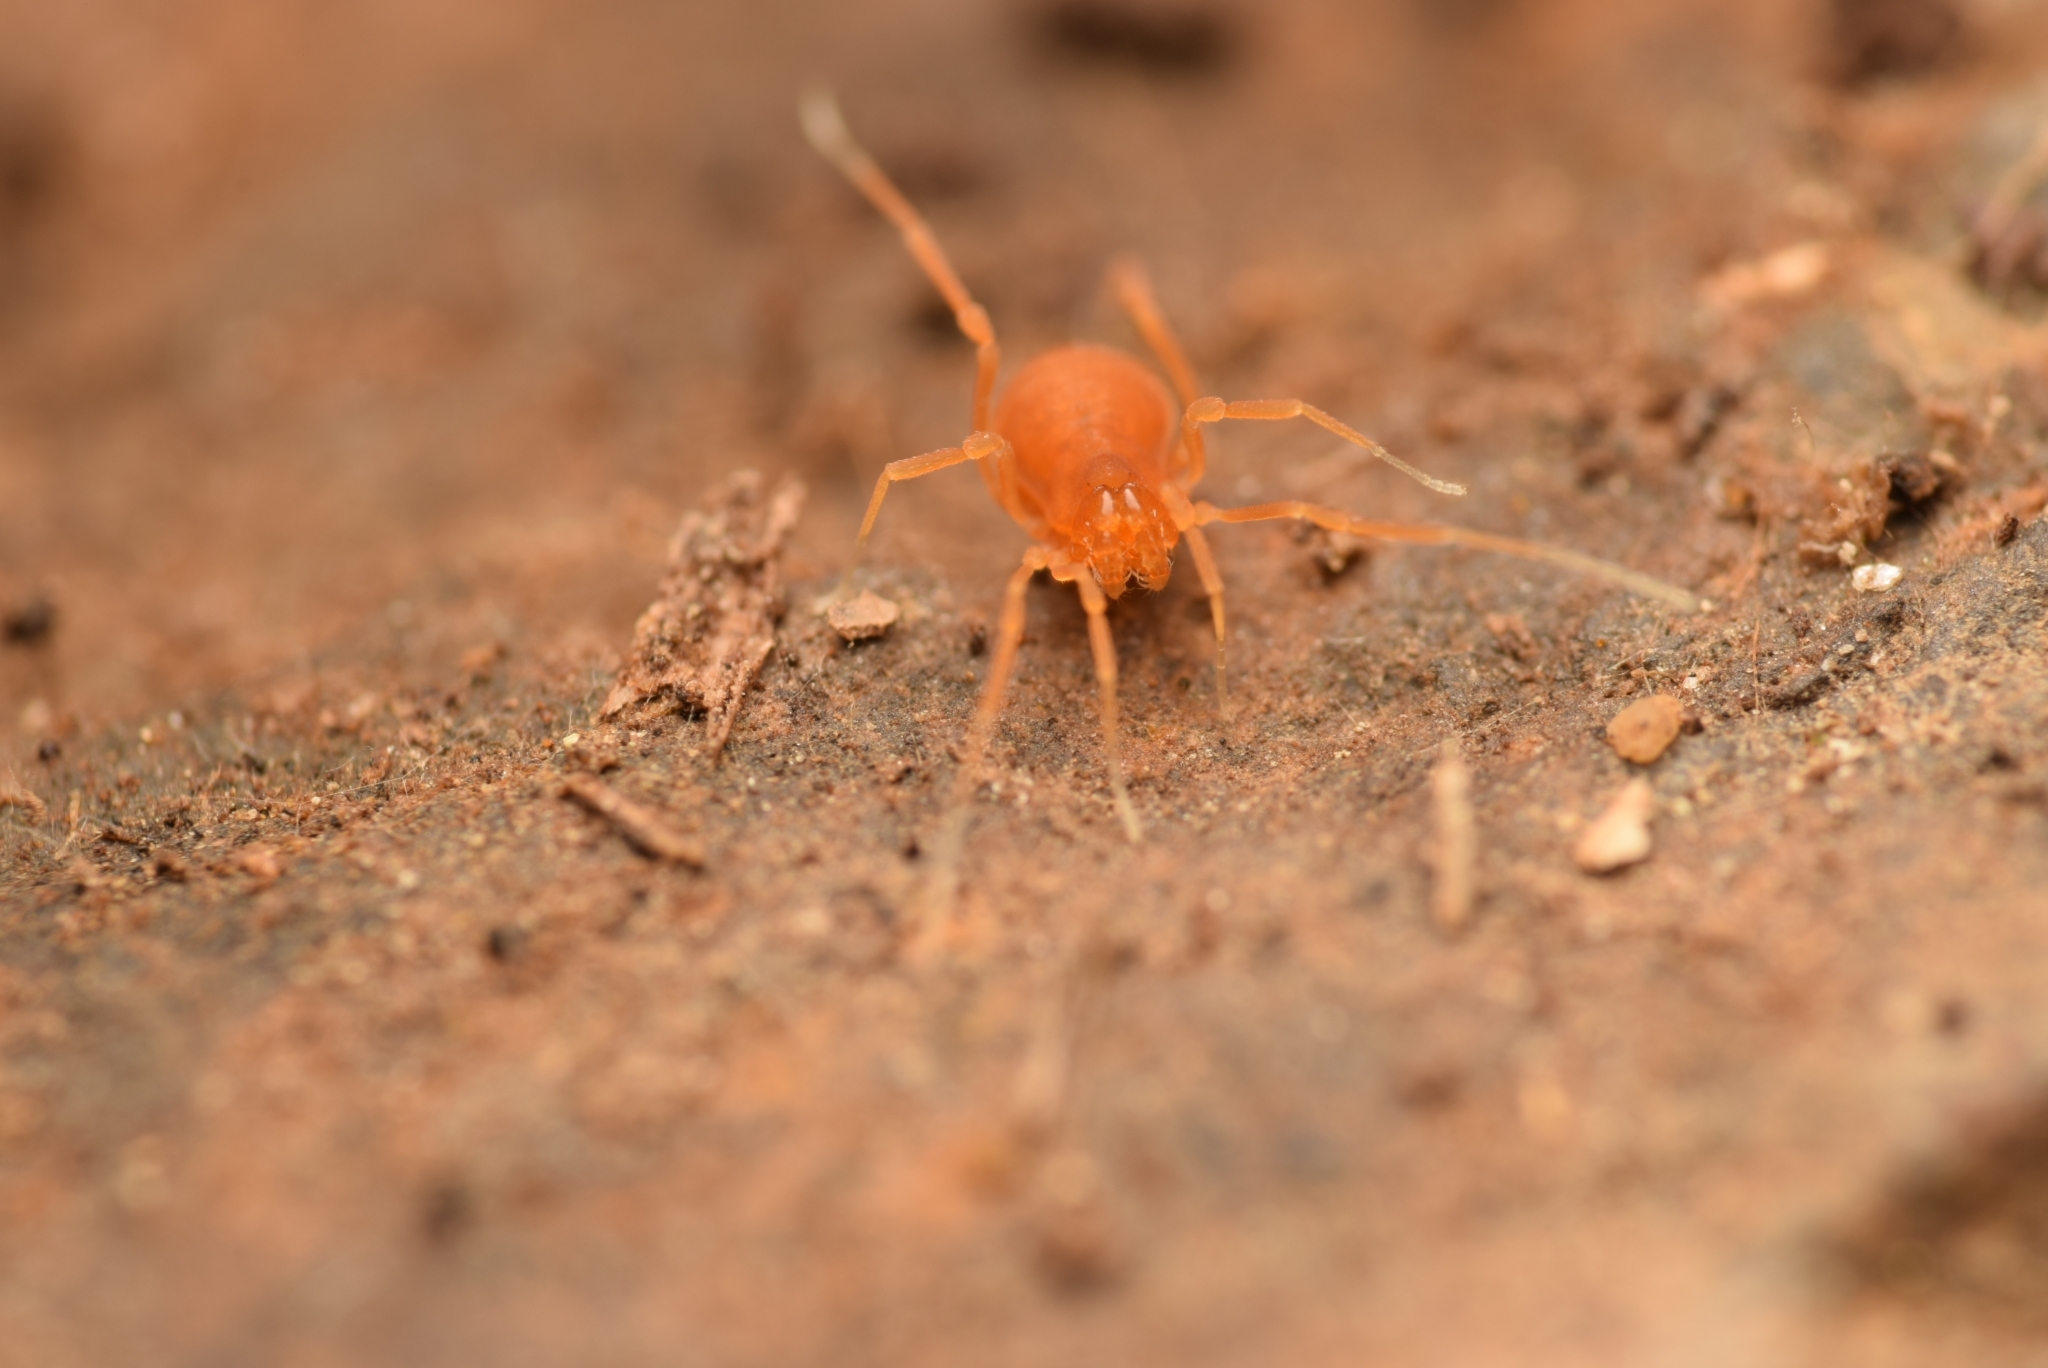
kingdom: Animalia
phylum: Arthropoda
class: Arachnida
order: Opiliones
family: Phalangodidae
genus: Scotolemon
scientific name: Scotolemon doriae
